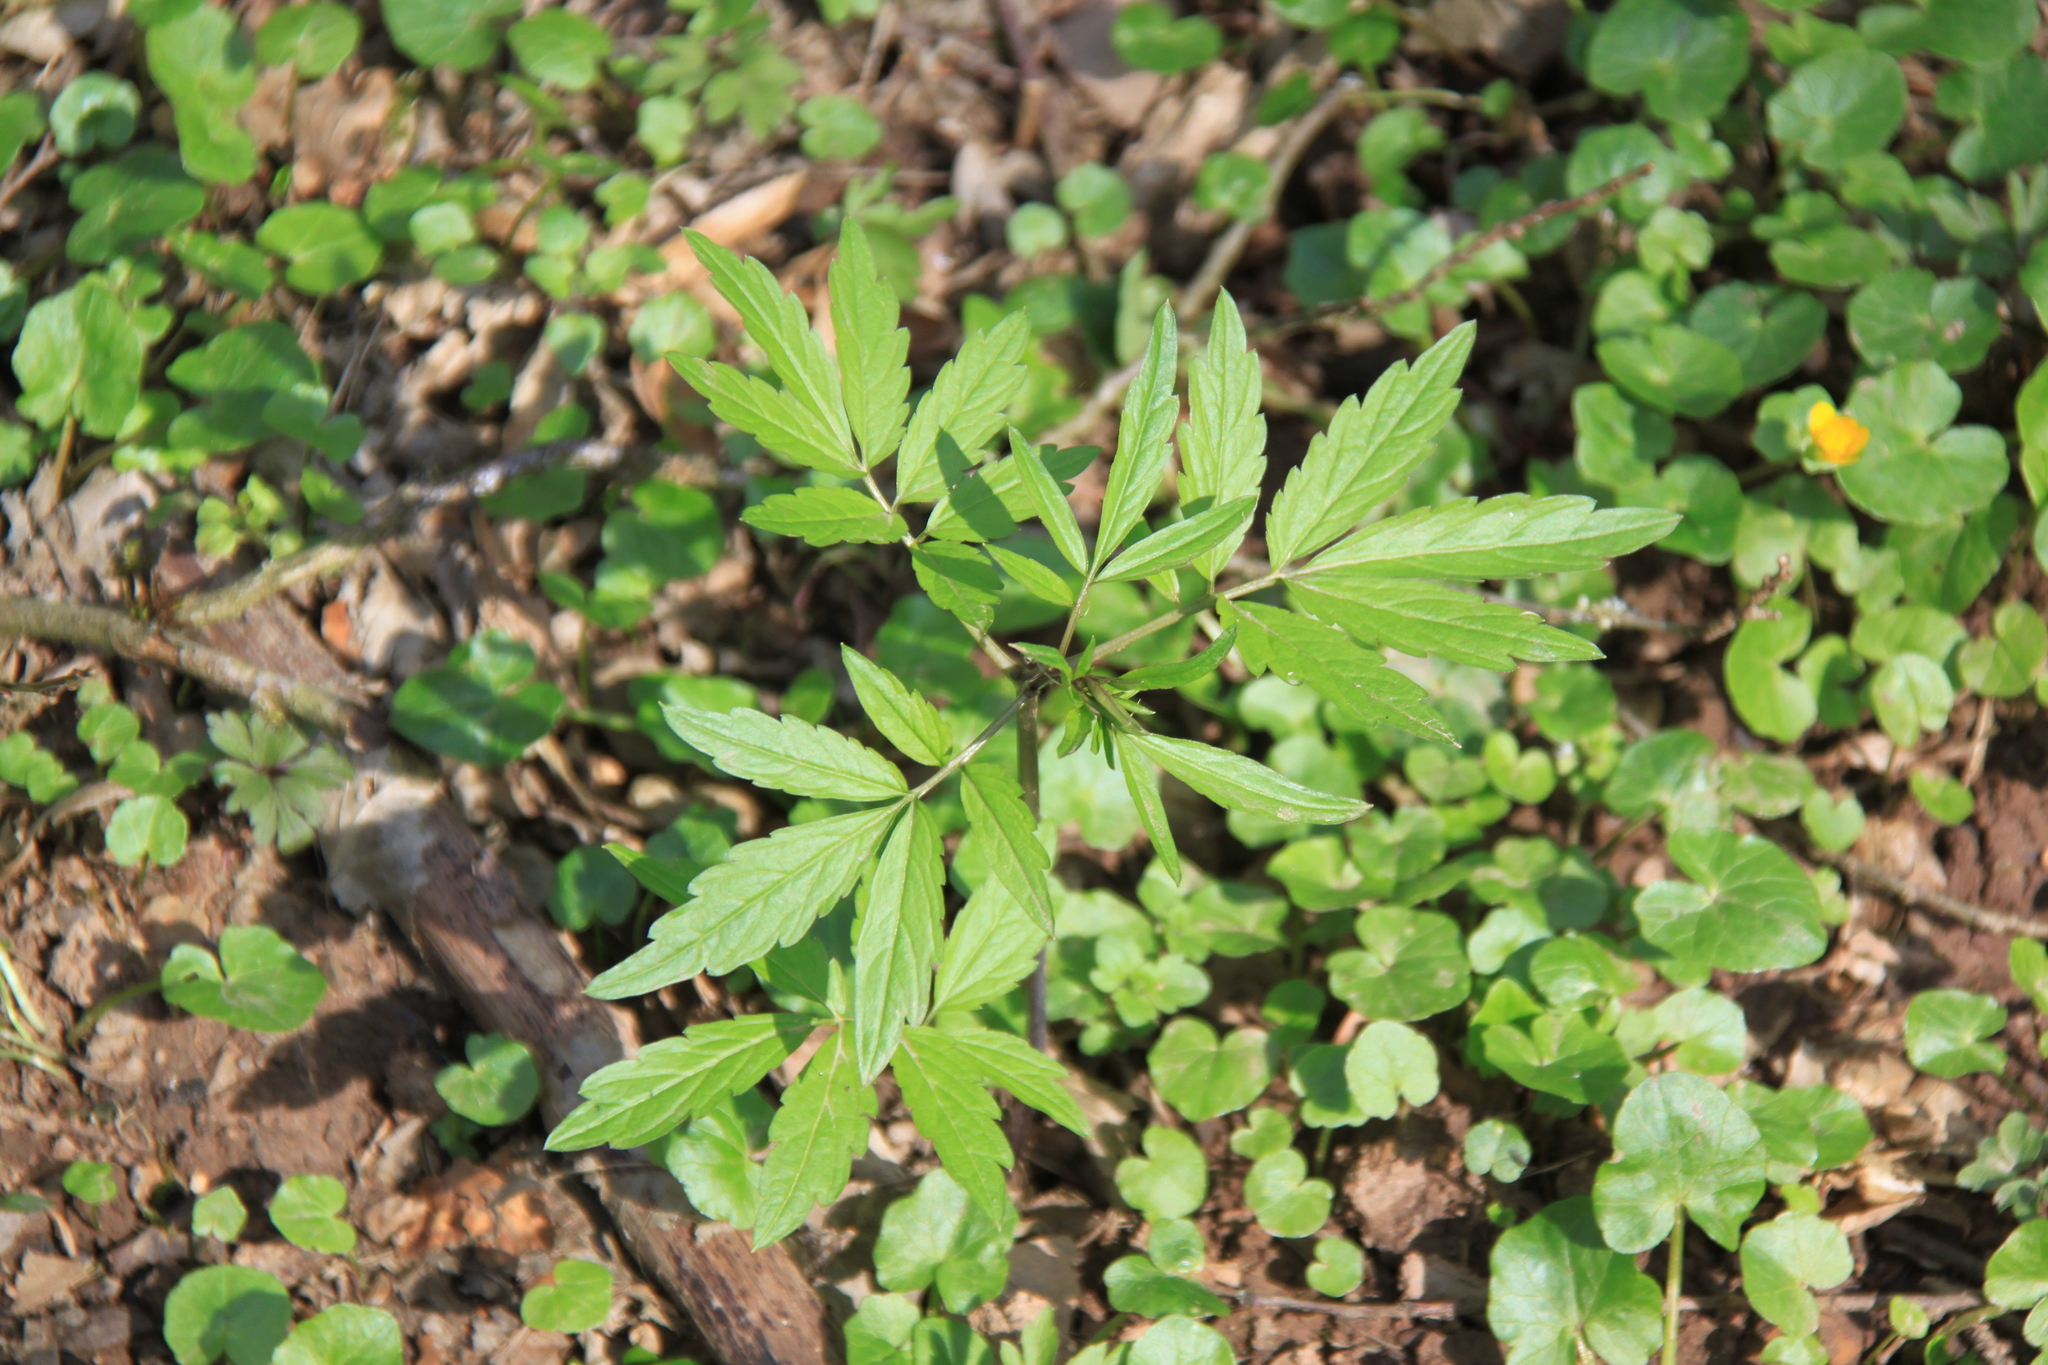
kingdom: Plantae
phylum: Tracheophyta
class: Magnoliopsida
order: Brassicales
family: Brassicaceae
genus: Cardamine
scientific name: Cardamine bulbifera
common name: Coralroot bittercress
